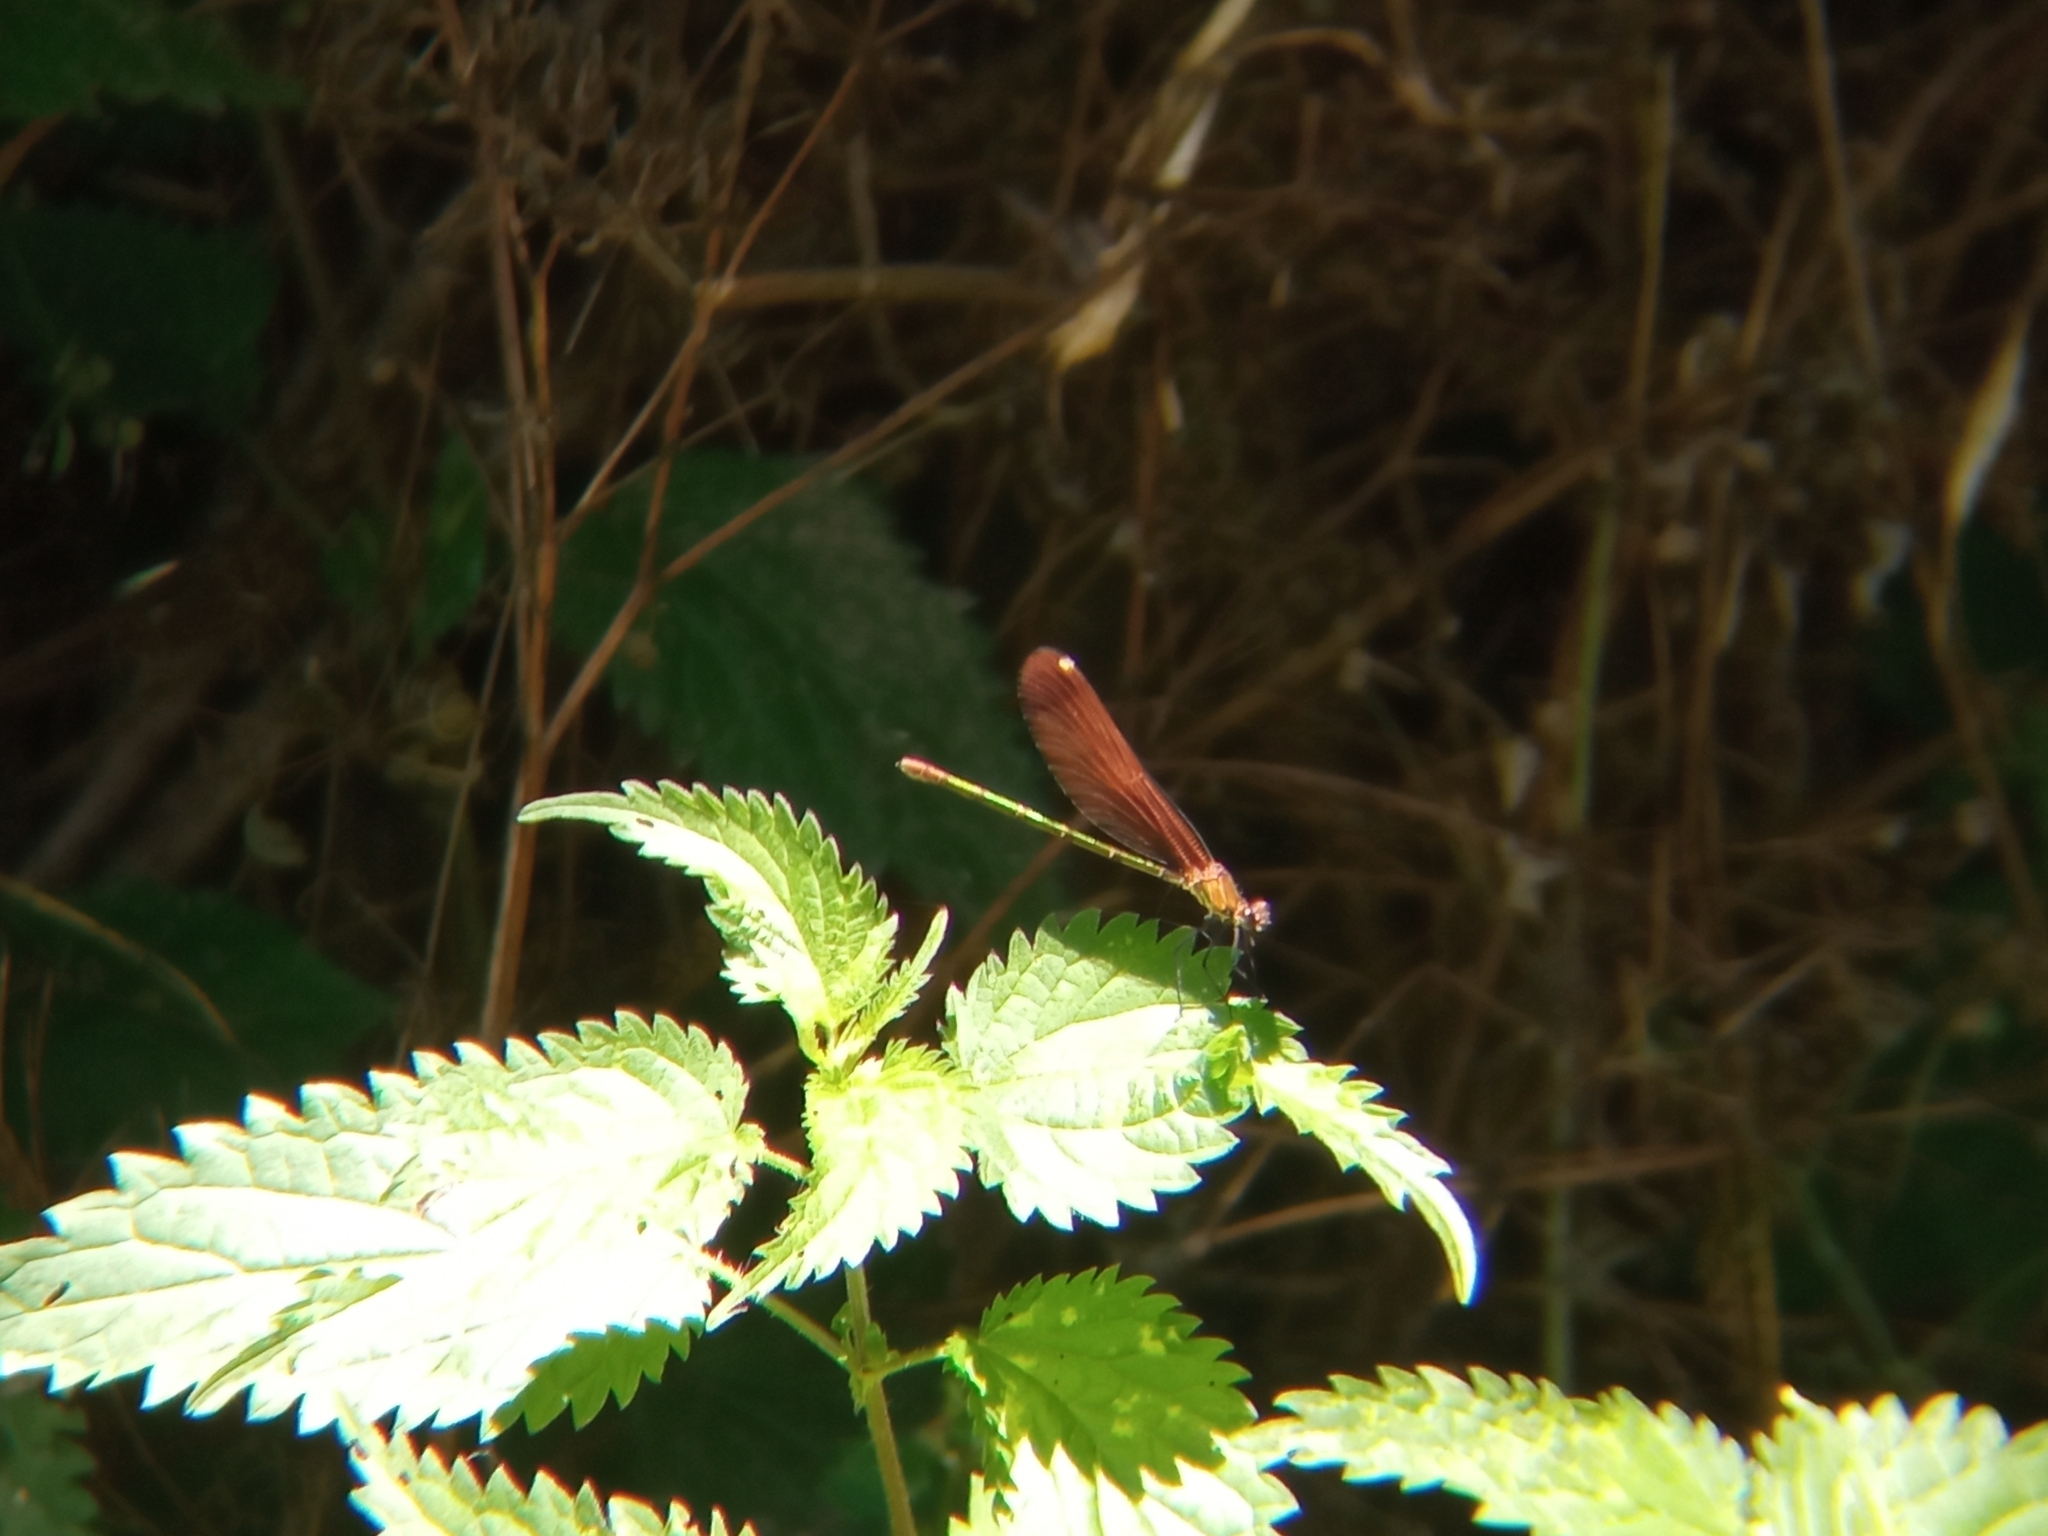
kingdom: Animalia
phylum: Arthropoda
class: Insecta
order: Odonata
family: Calopterygidae
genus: Calopteryx
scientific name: Calopteryx haemorrhoidalis
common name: Copper demoiselle
